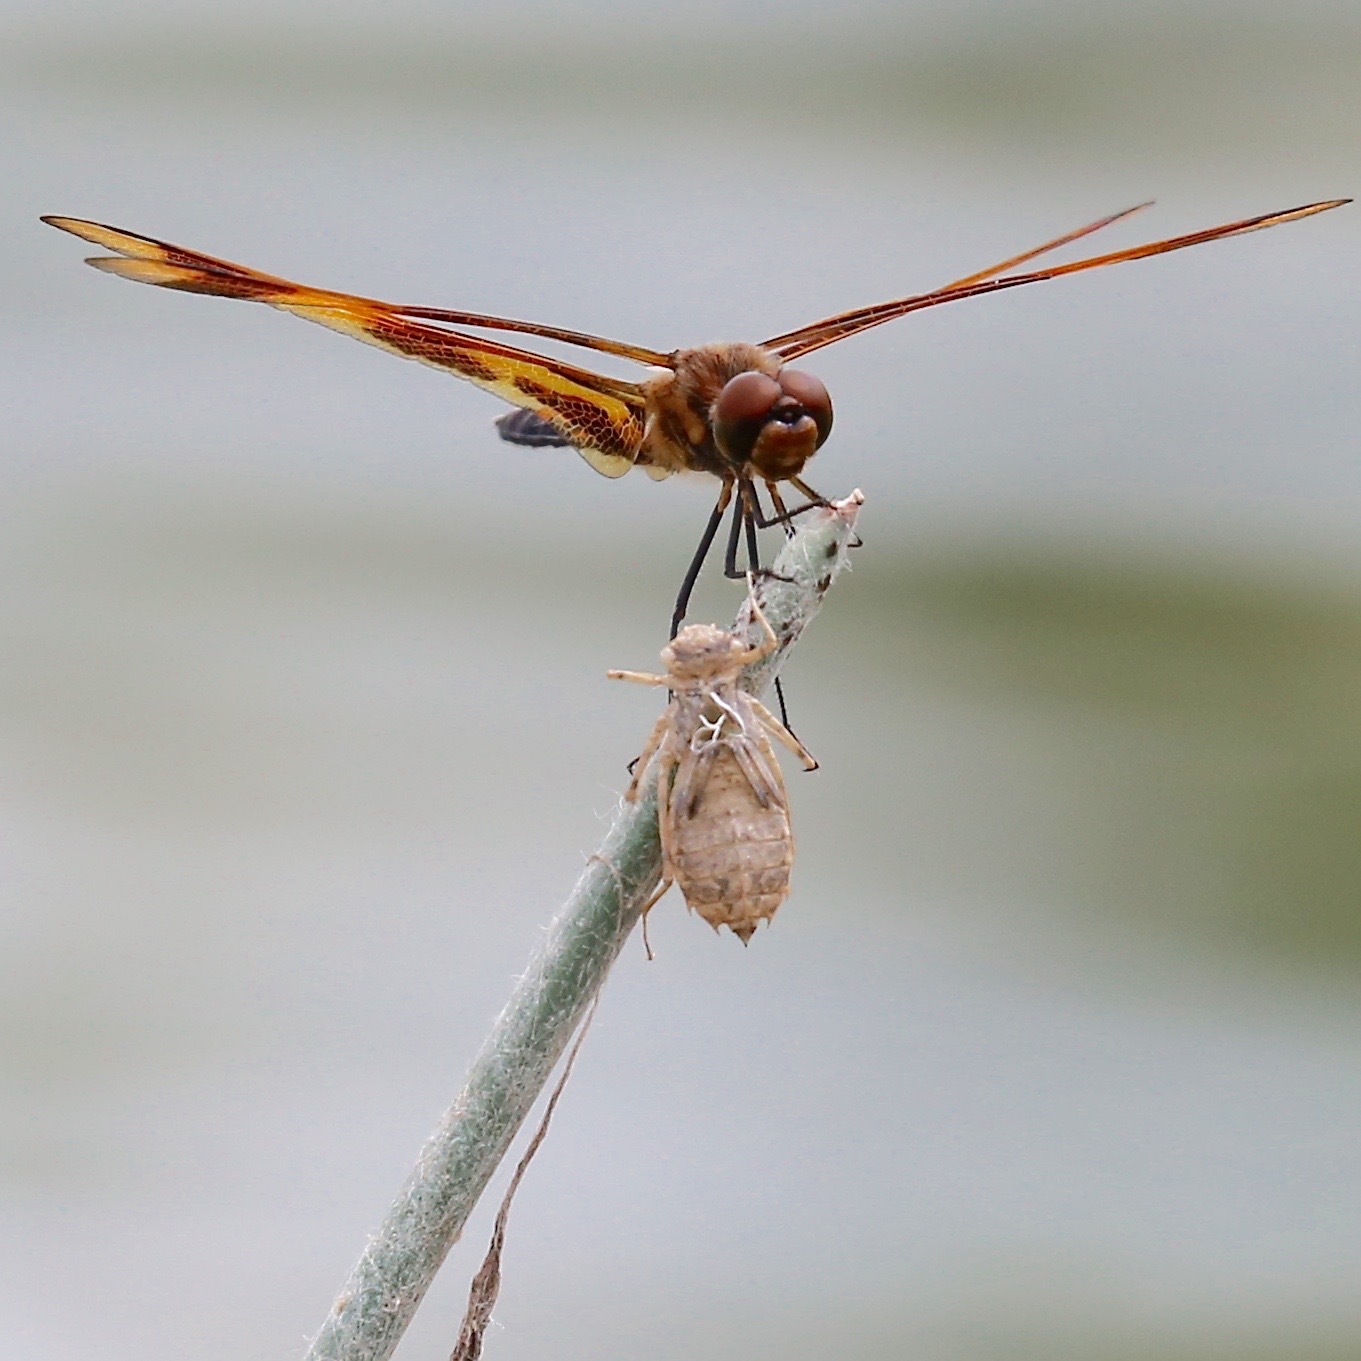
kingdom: Animalia
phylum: Arthropoda
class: Insecta
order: Odonata
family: Libellulidae
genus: Celithemis
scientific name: Celithemis eponina
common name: Halloween pennant
